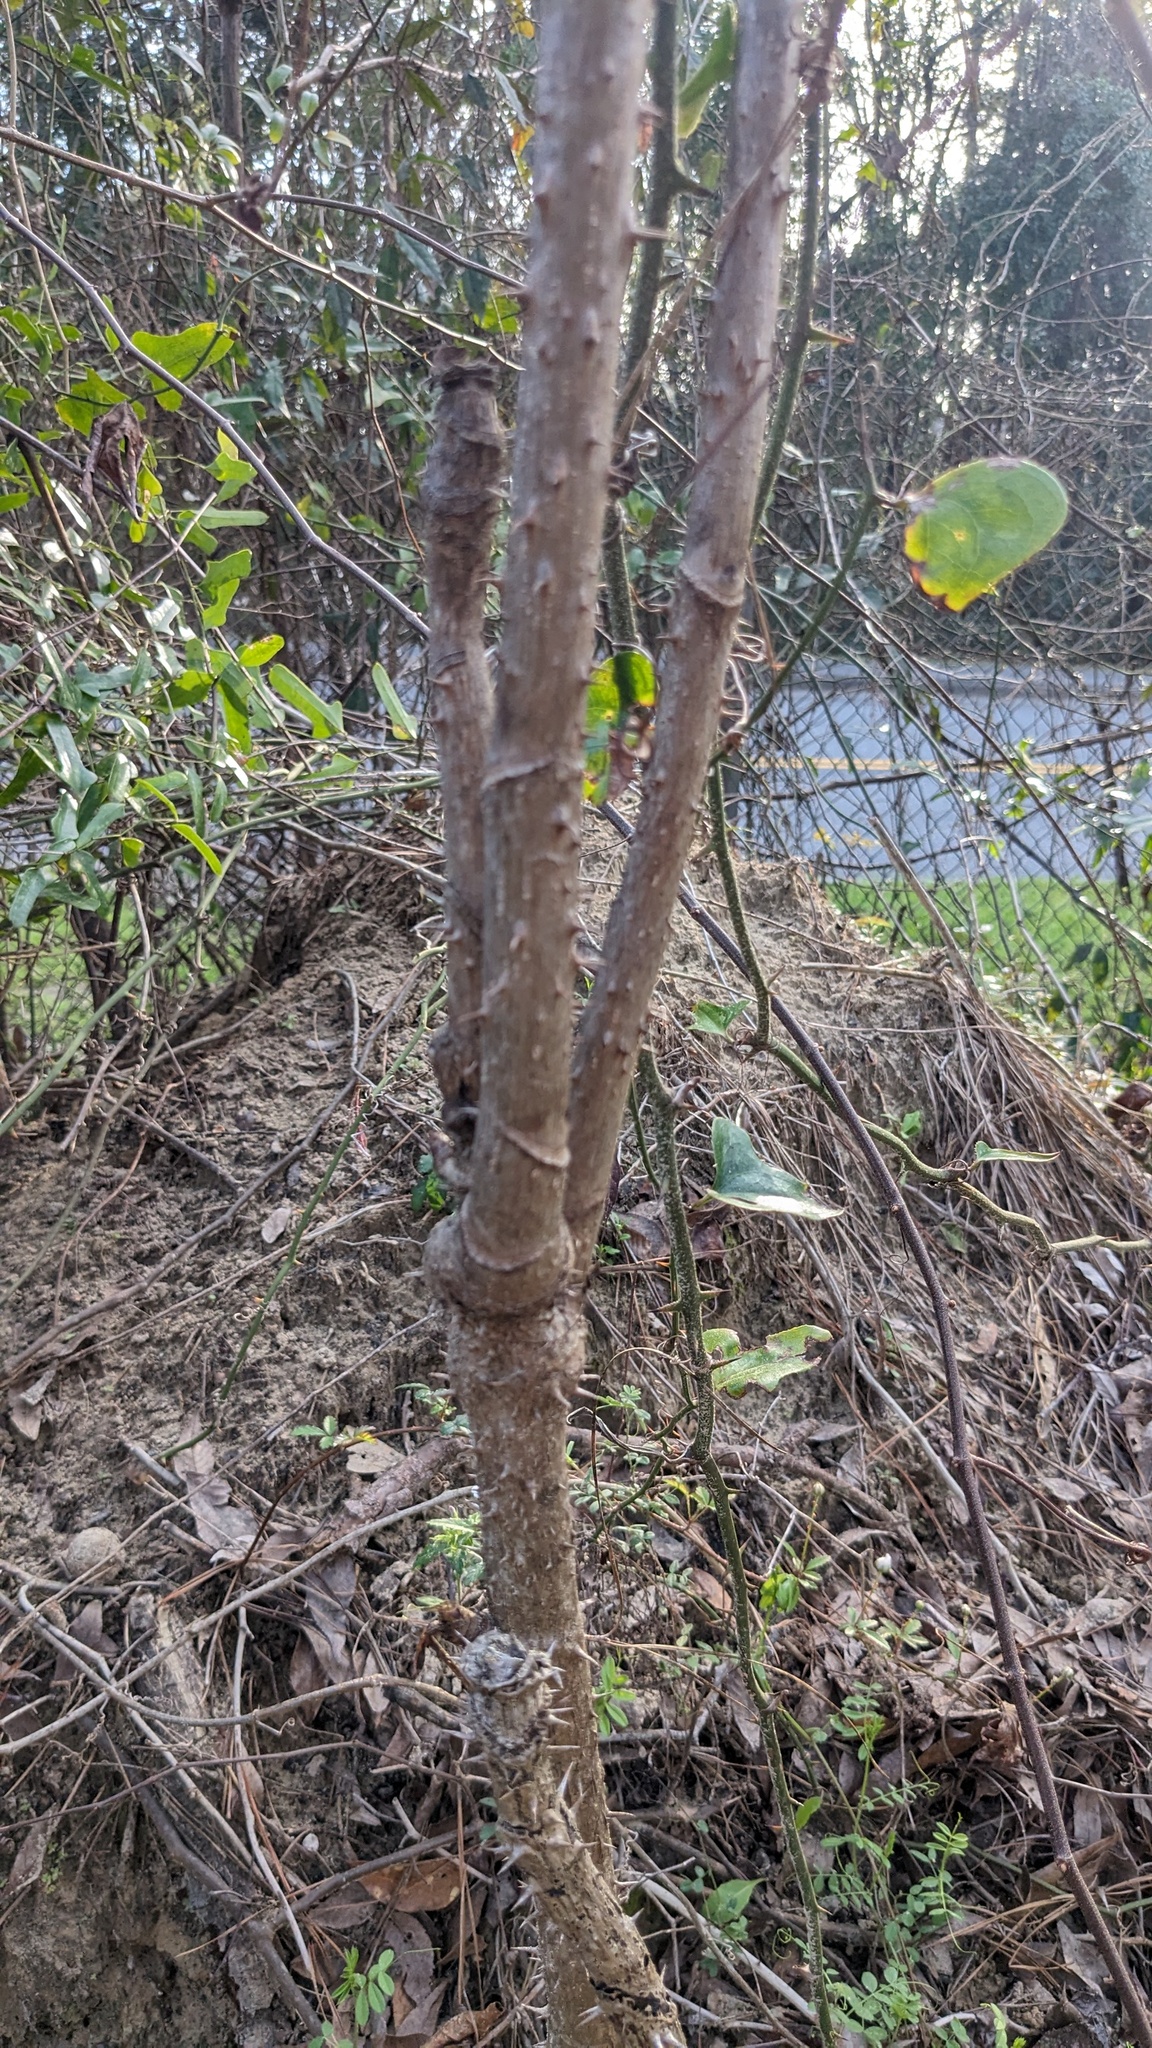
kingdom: Plantae
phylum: Tracheophyta
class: Magnoliopsida
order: Apiales
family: Araliaceae
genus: Aralia
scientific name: Aralia spinosa
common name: Hercules'-club
